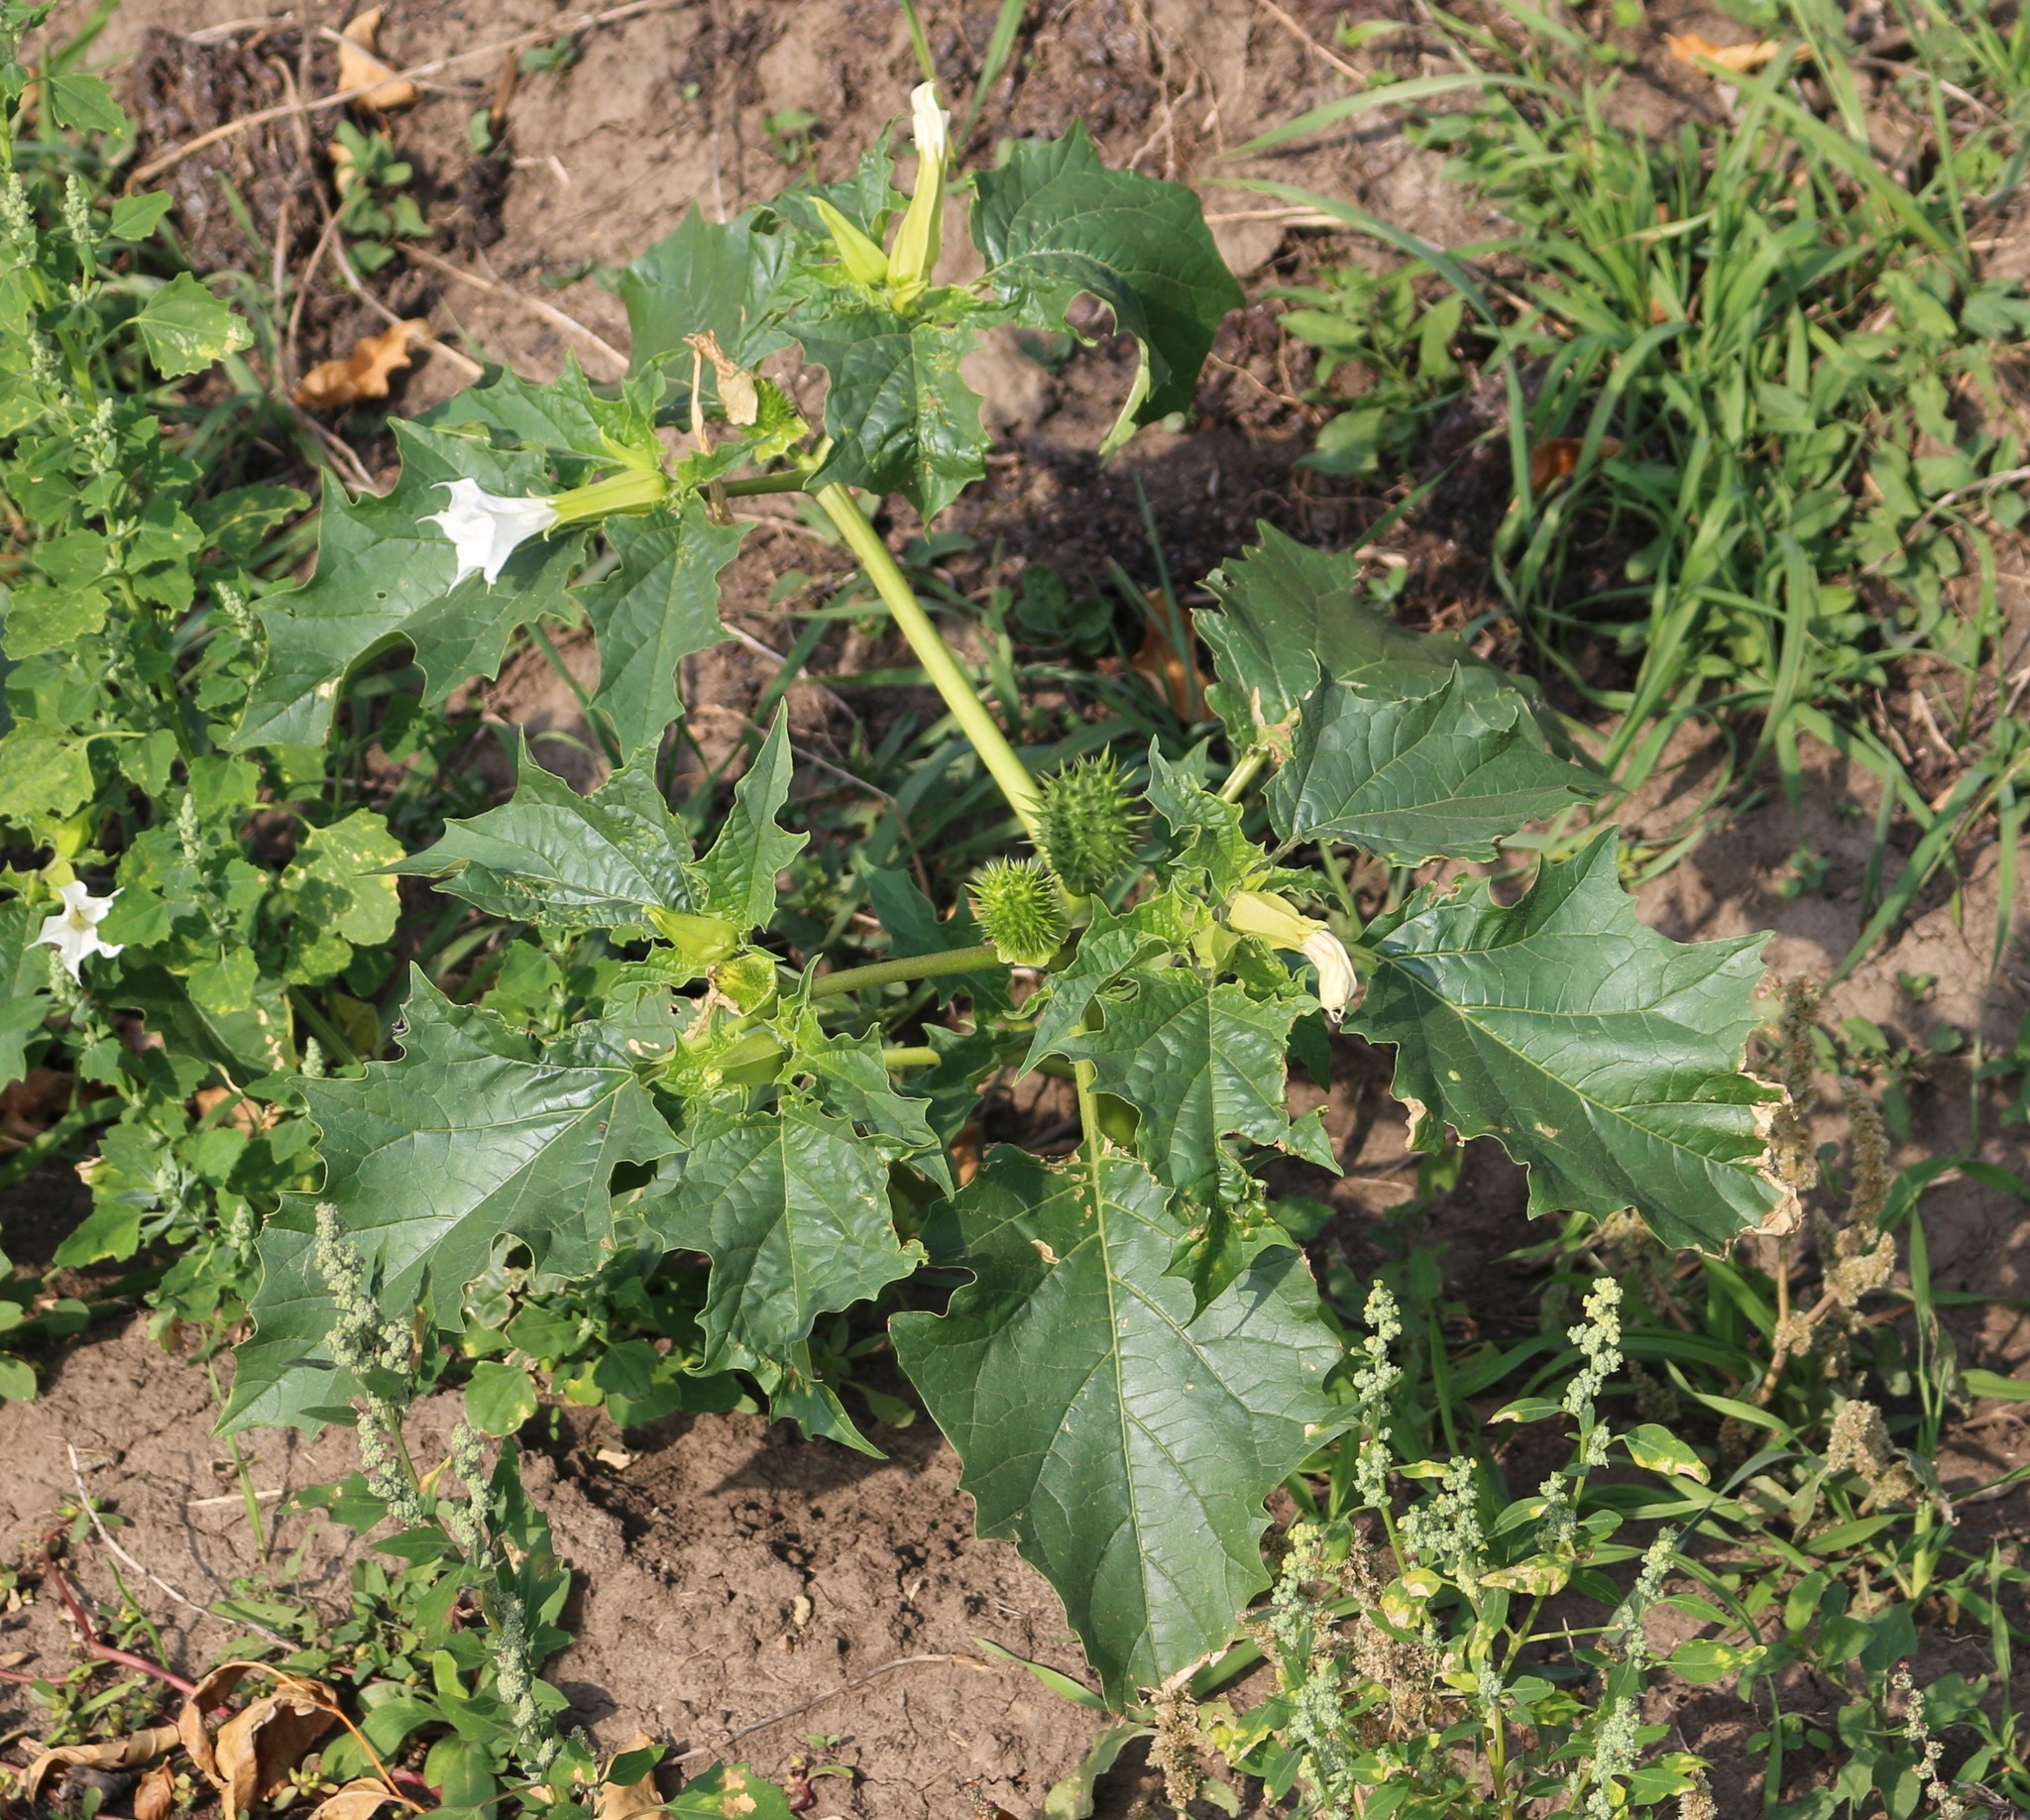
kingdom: Plantae
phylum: Tracheophyta
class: Magnoliopsida
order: Solanales
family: Solanaceae
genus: Datura
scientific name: Datura stramonium
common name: Thorn-apple
